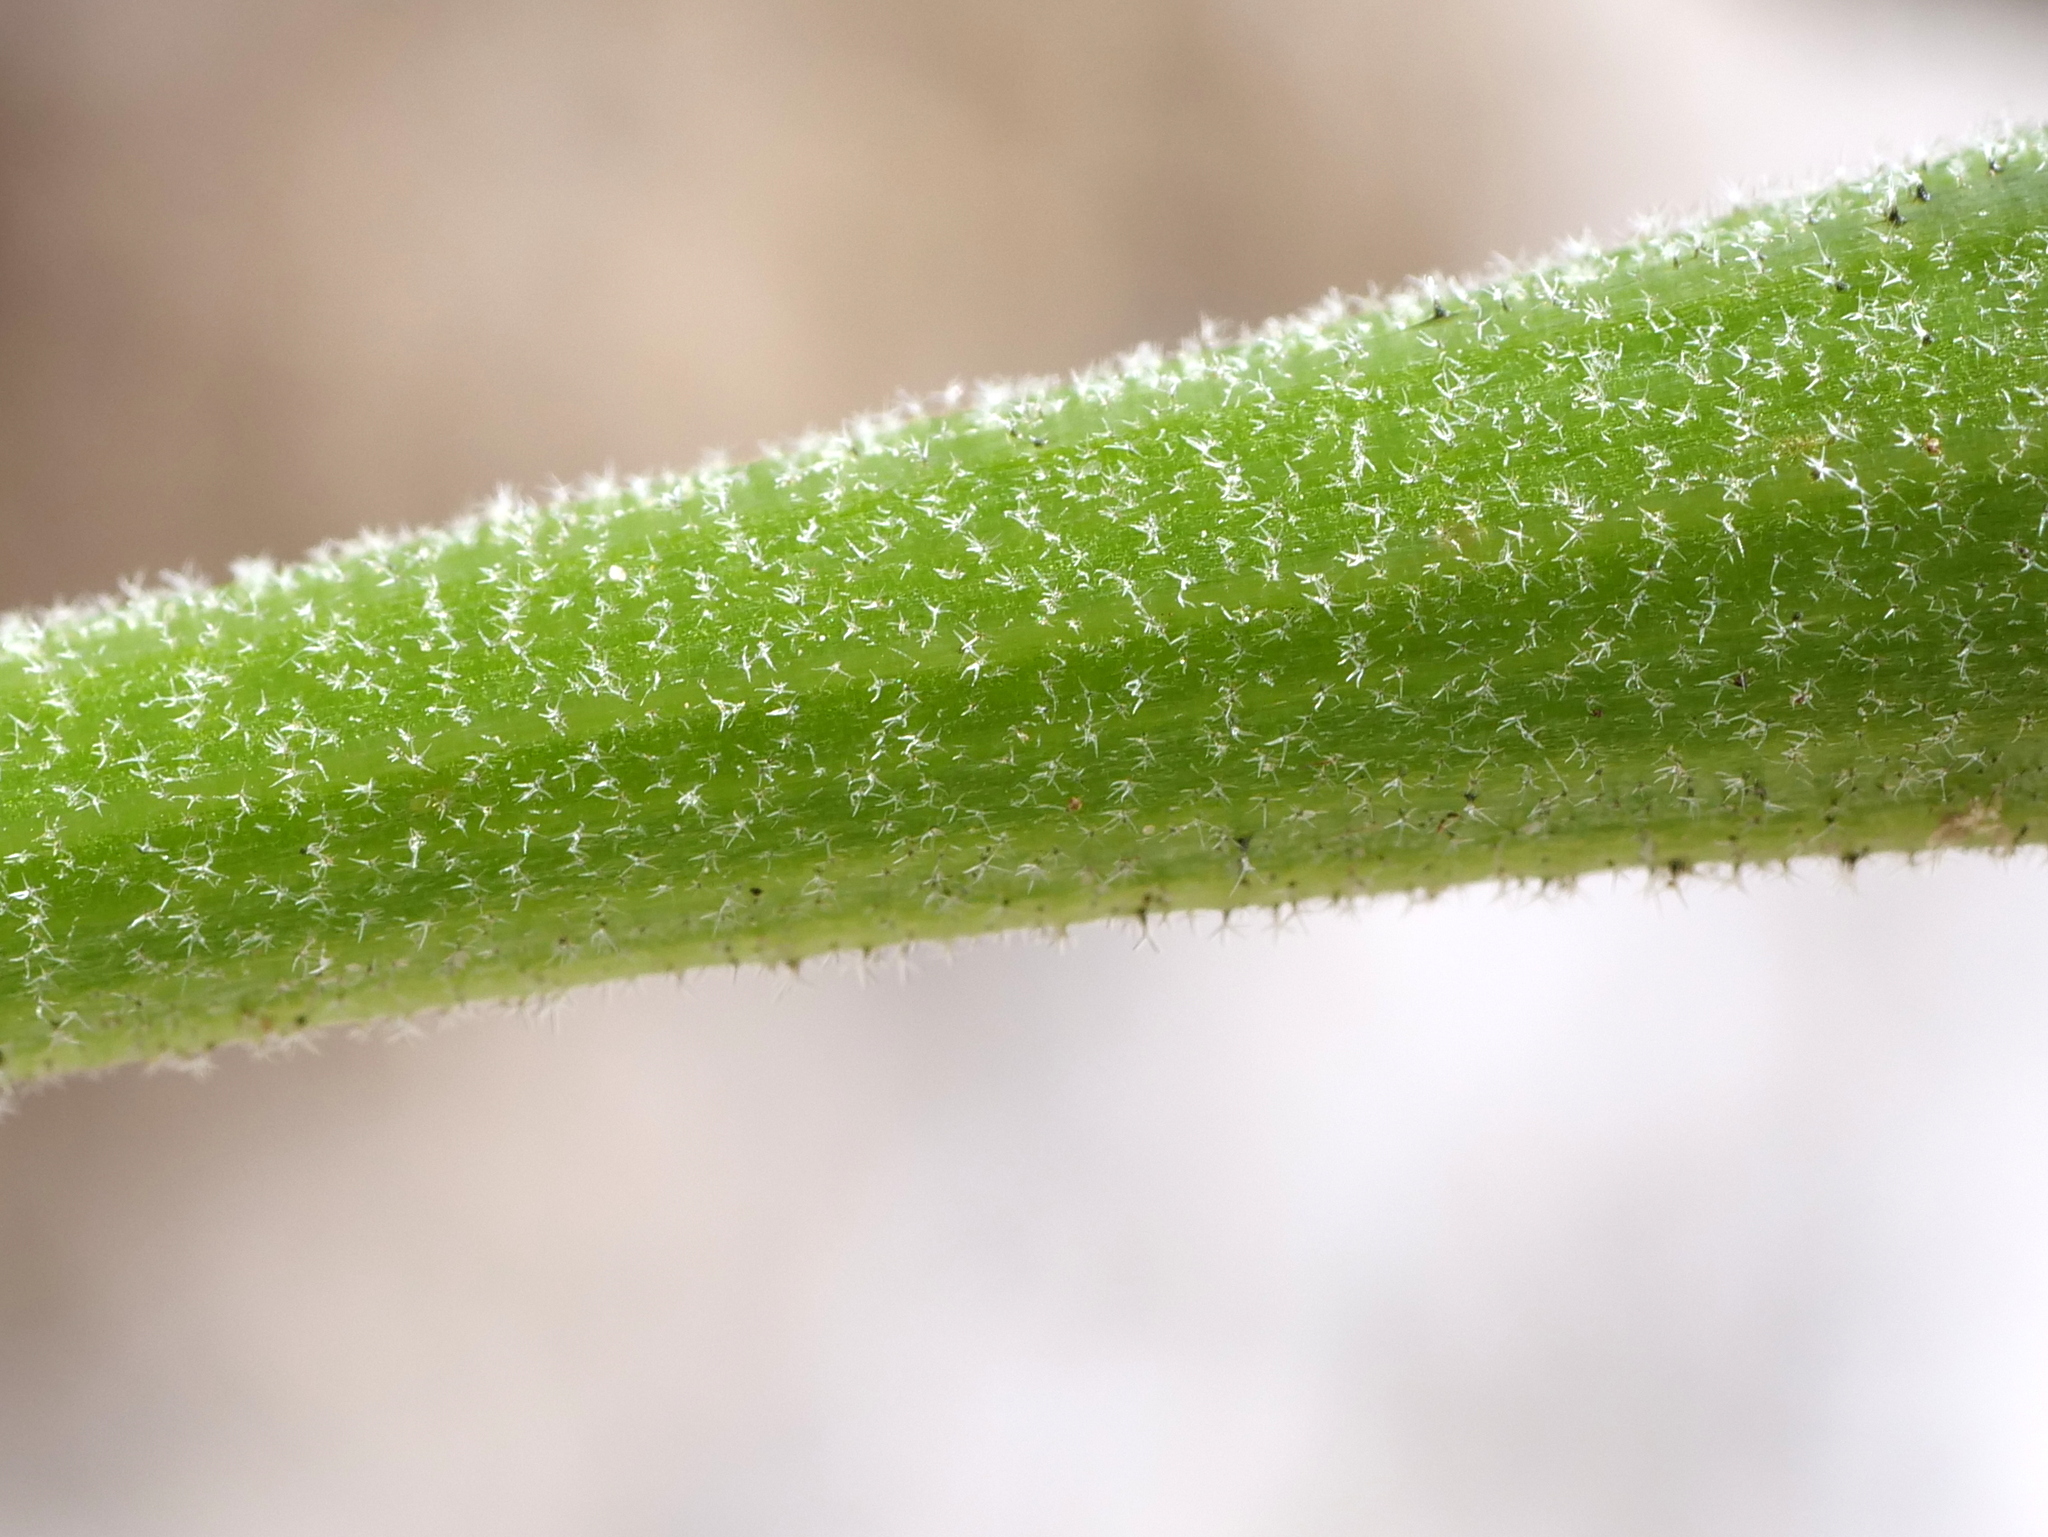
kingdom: Plantae
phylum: Tracheophyta
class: Magnoliopsida
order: Asterales
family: Asteraceae
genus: Leontodon
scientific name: Leontodon incanus
